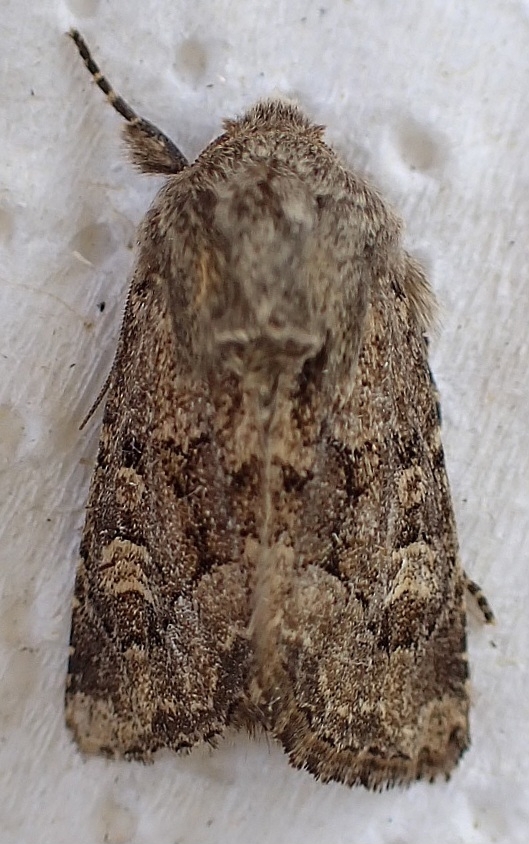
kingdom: Animalia
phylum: Arthropoda
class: Insecta
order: Lepidoptera
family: Noctuidae
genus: Luperina
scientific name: Luperina testacea
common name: Flounced rustic
